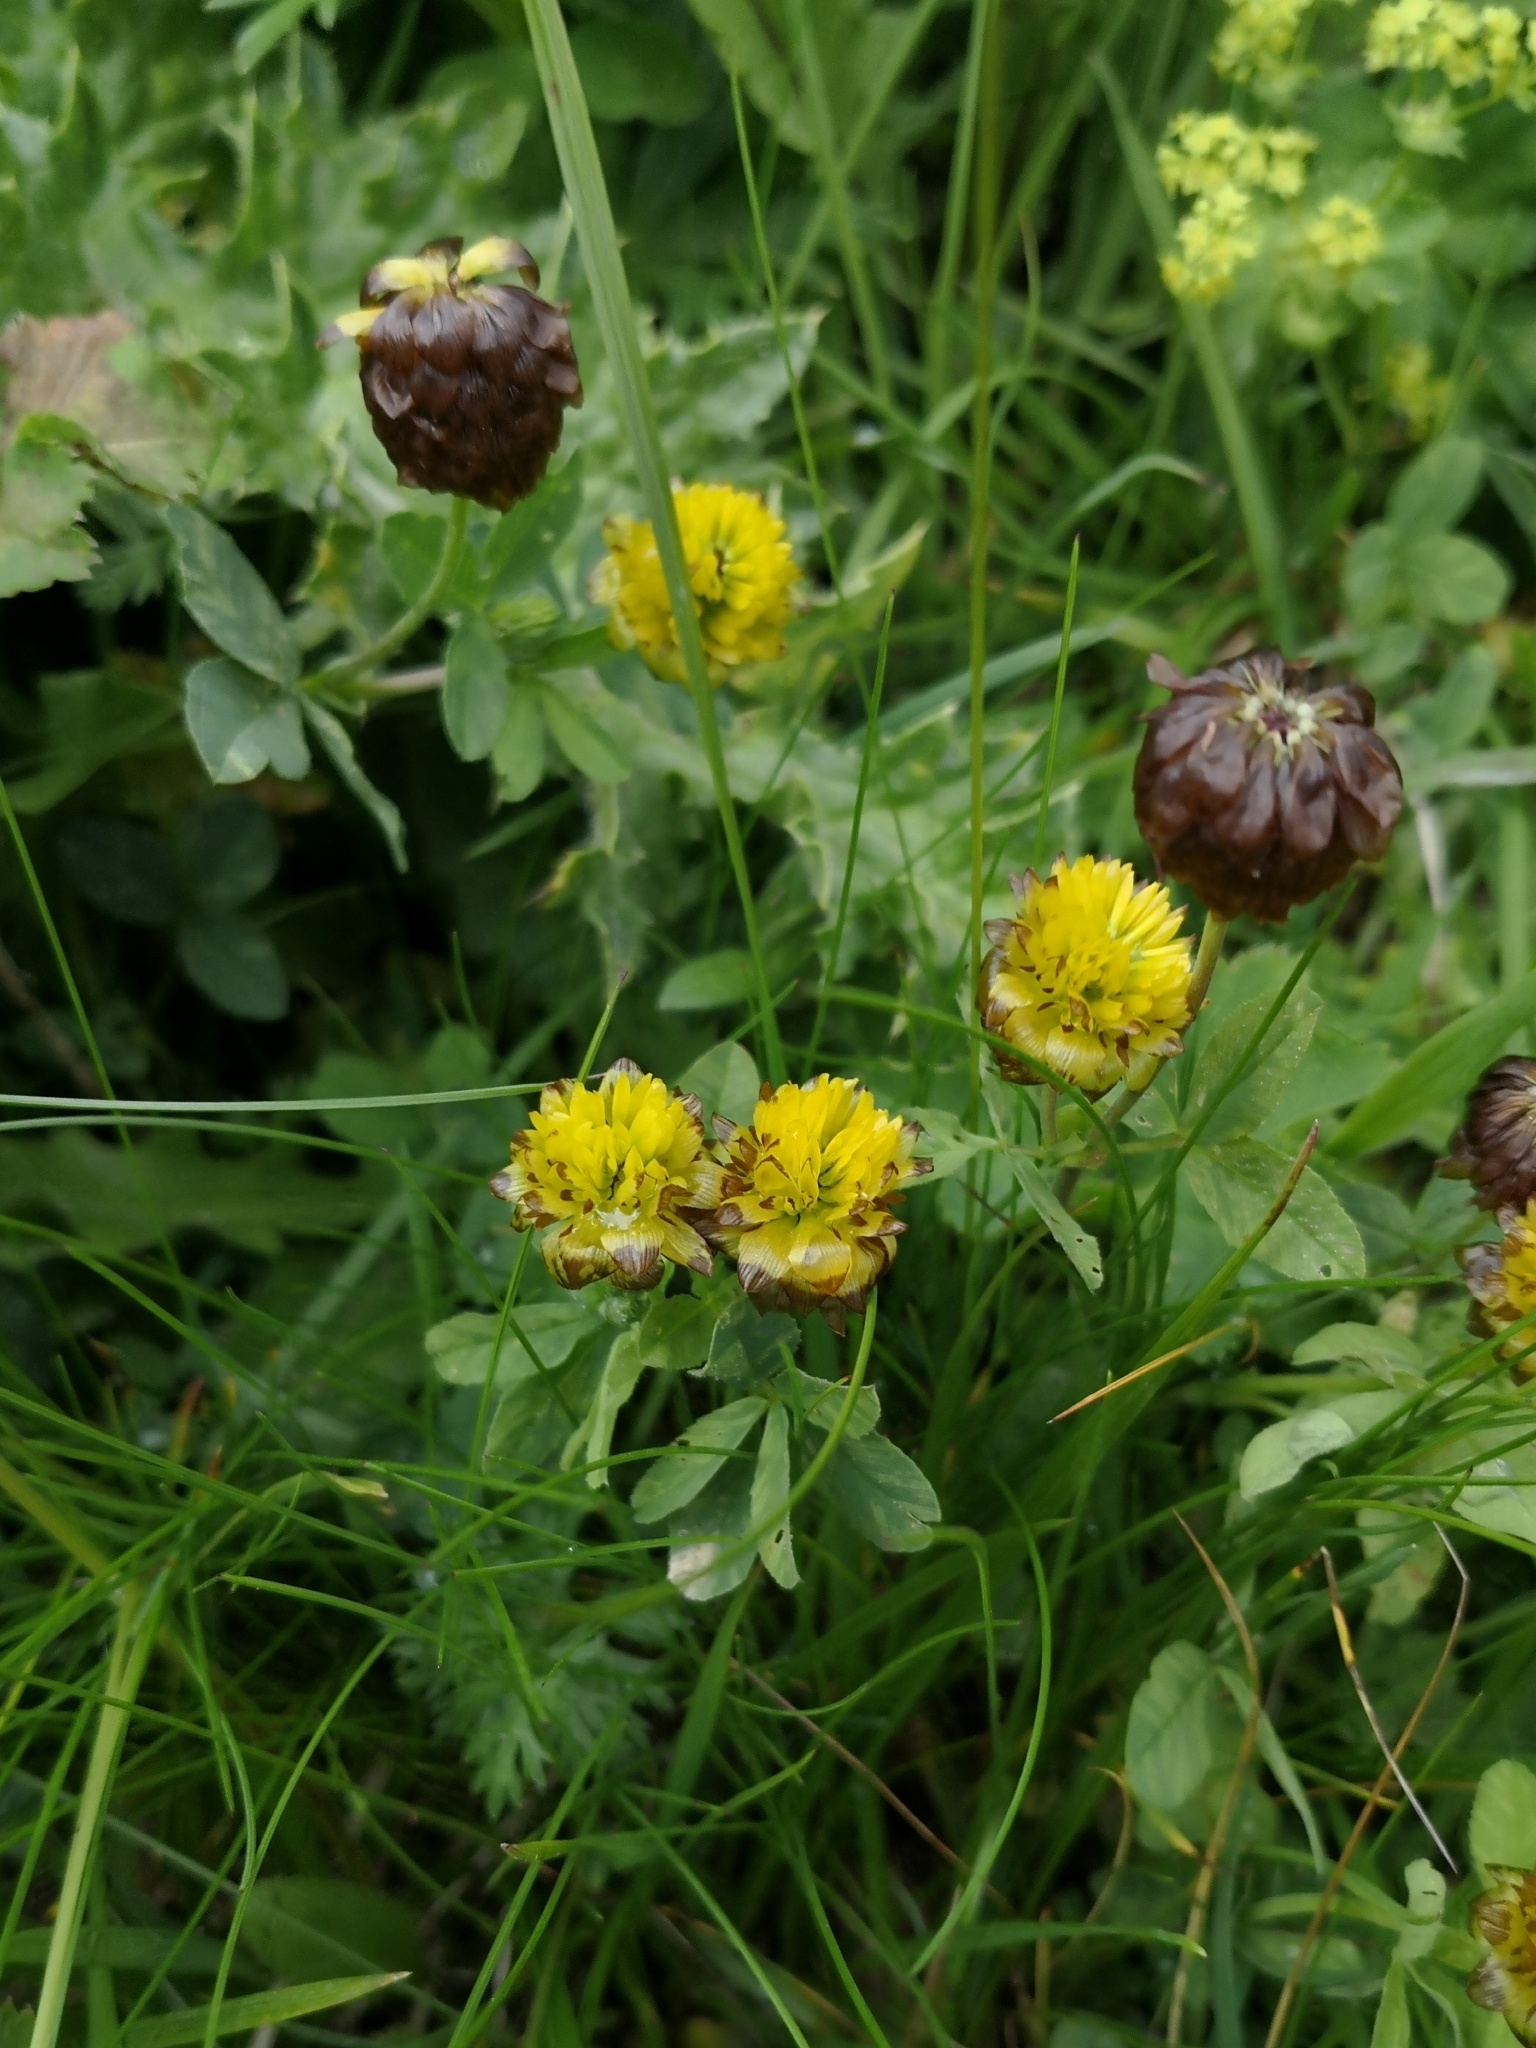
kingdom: Plantae
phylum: Tracheophyta
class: Magnoliopsida
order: Fabales
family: Fabaceae
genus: Trifolium
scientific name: Trifolium badium
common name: Brown clover
